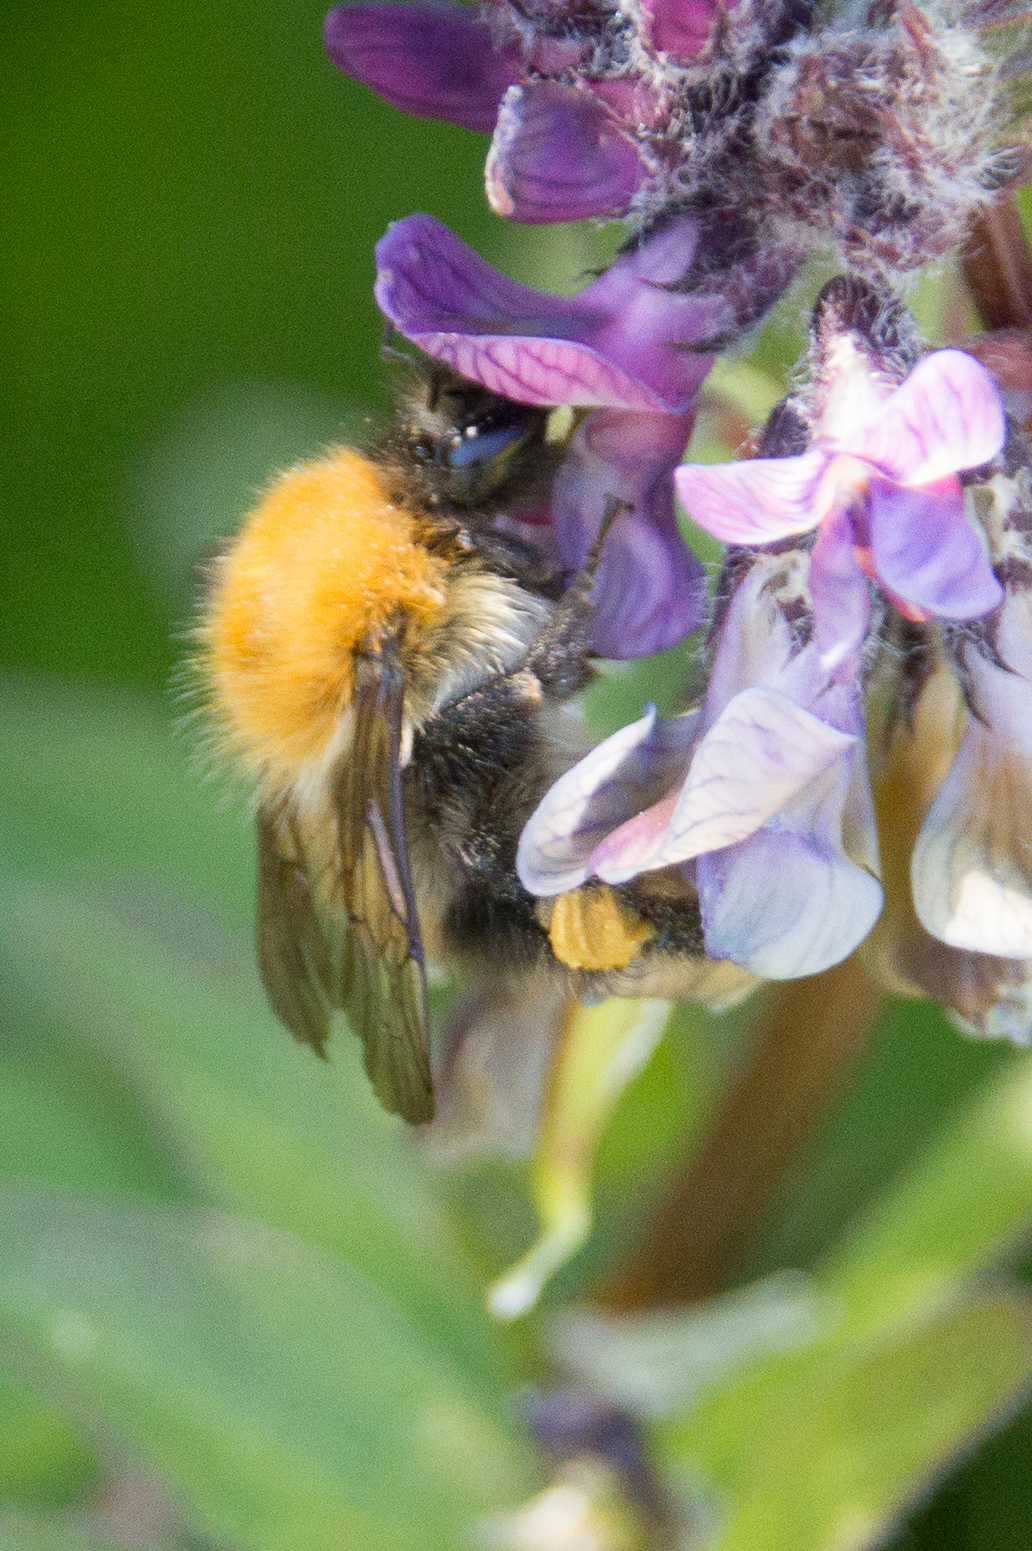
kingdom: Animalia
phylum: Arthropoda
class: Insecta
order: Hymenoptera
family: Apidae
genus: Bombus
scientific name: Bombus pascuorum
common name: Common carder bee
